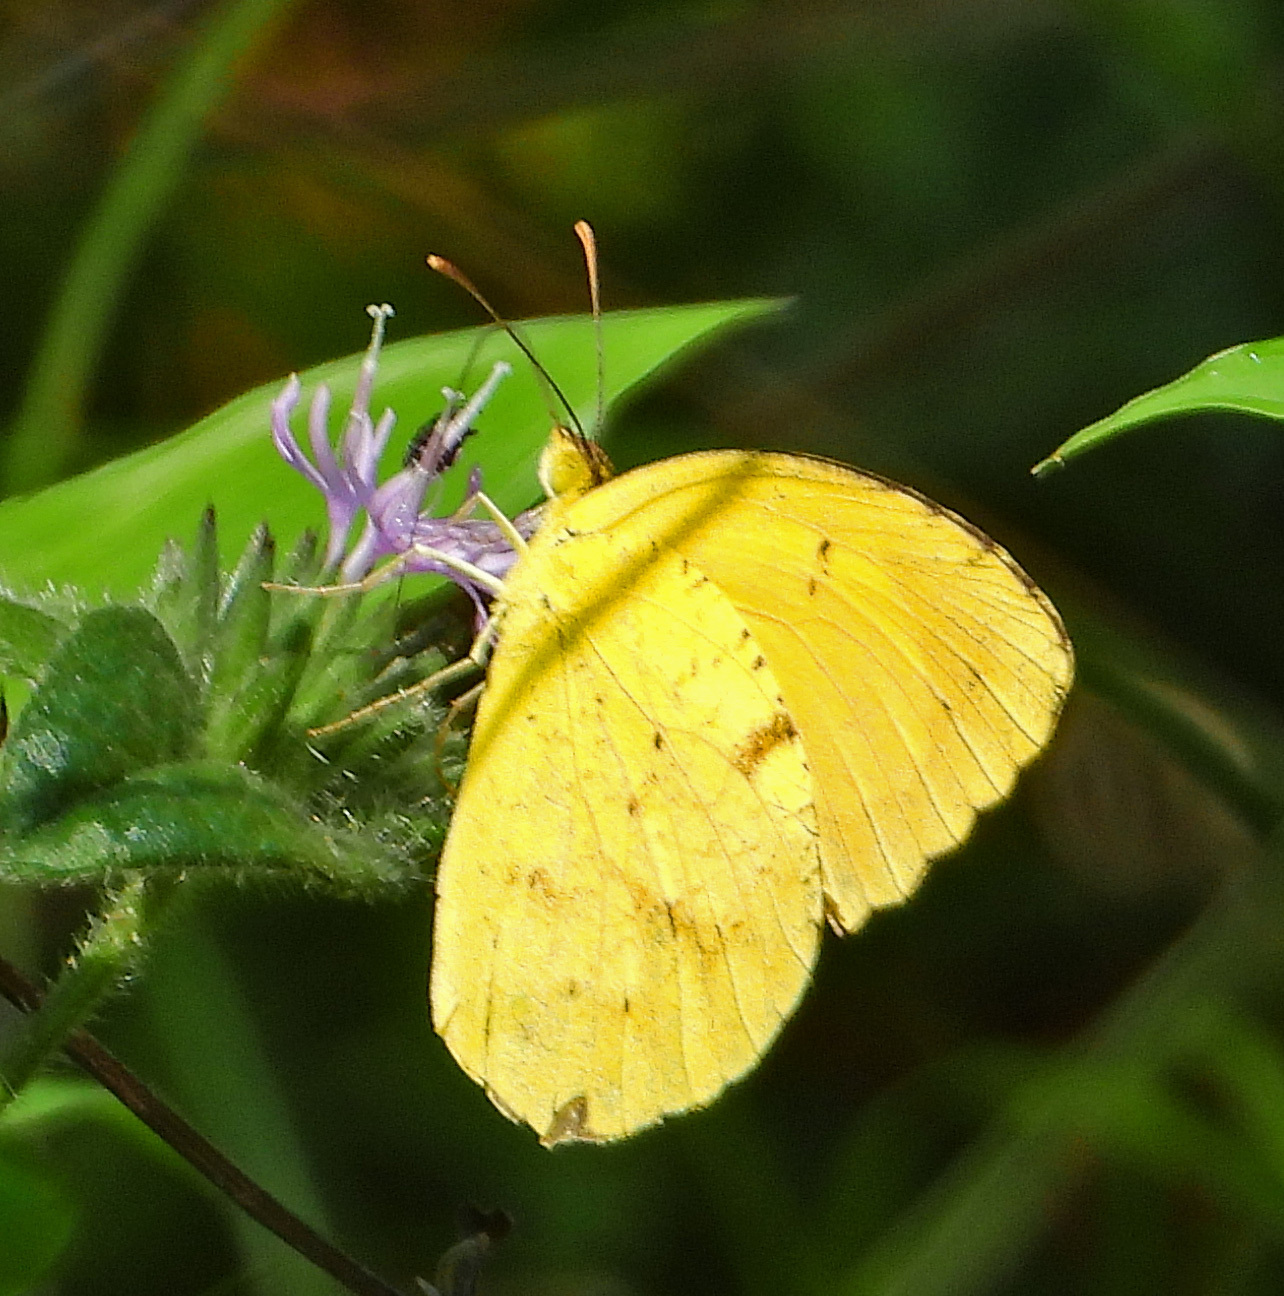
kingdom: Animalia
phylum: Arthropoda
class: Insecta
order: Lepidoptera
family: Pieridae
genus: Abaeis
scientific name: Abaeis nicippe
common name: Sleepy orange
